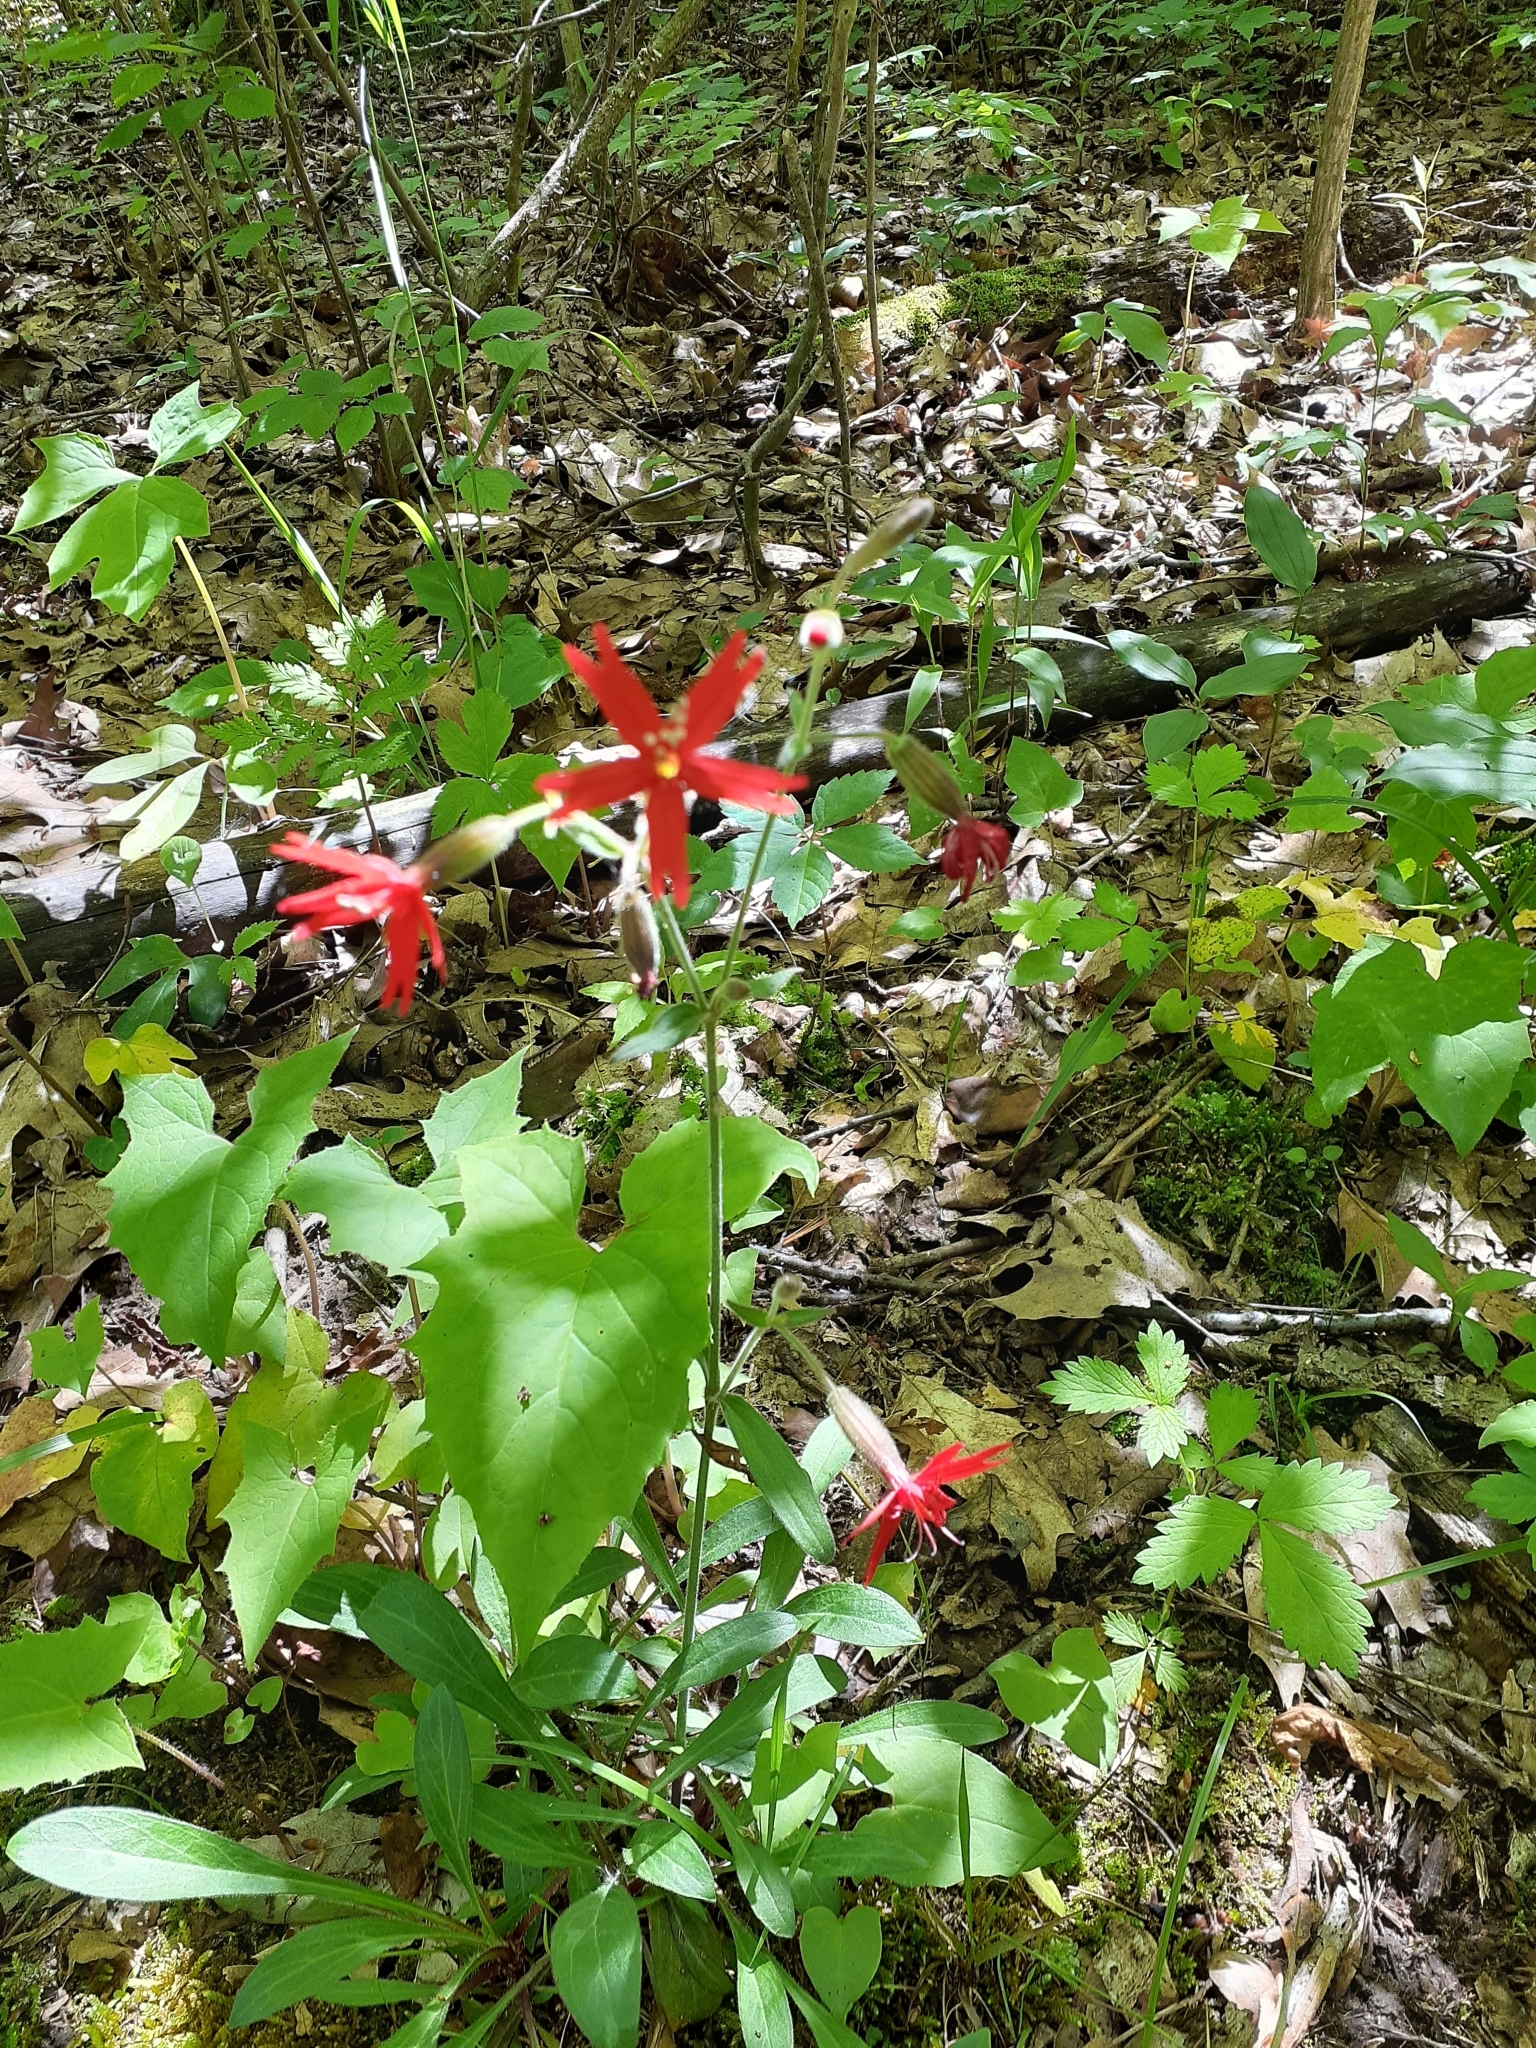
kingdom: Plantae
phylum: Tracheophyta
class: Magnoliopsida
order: Caryophyllales
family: Caryophyllaceae
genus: Silene
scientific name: Silene virginica
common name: Fire-pink
